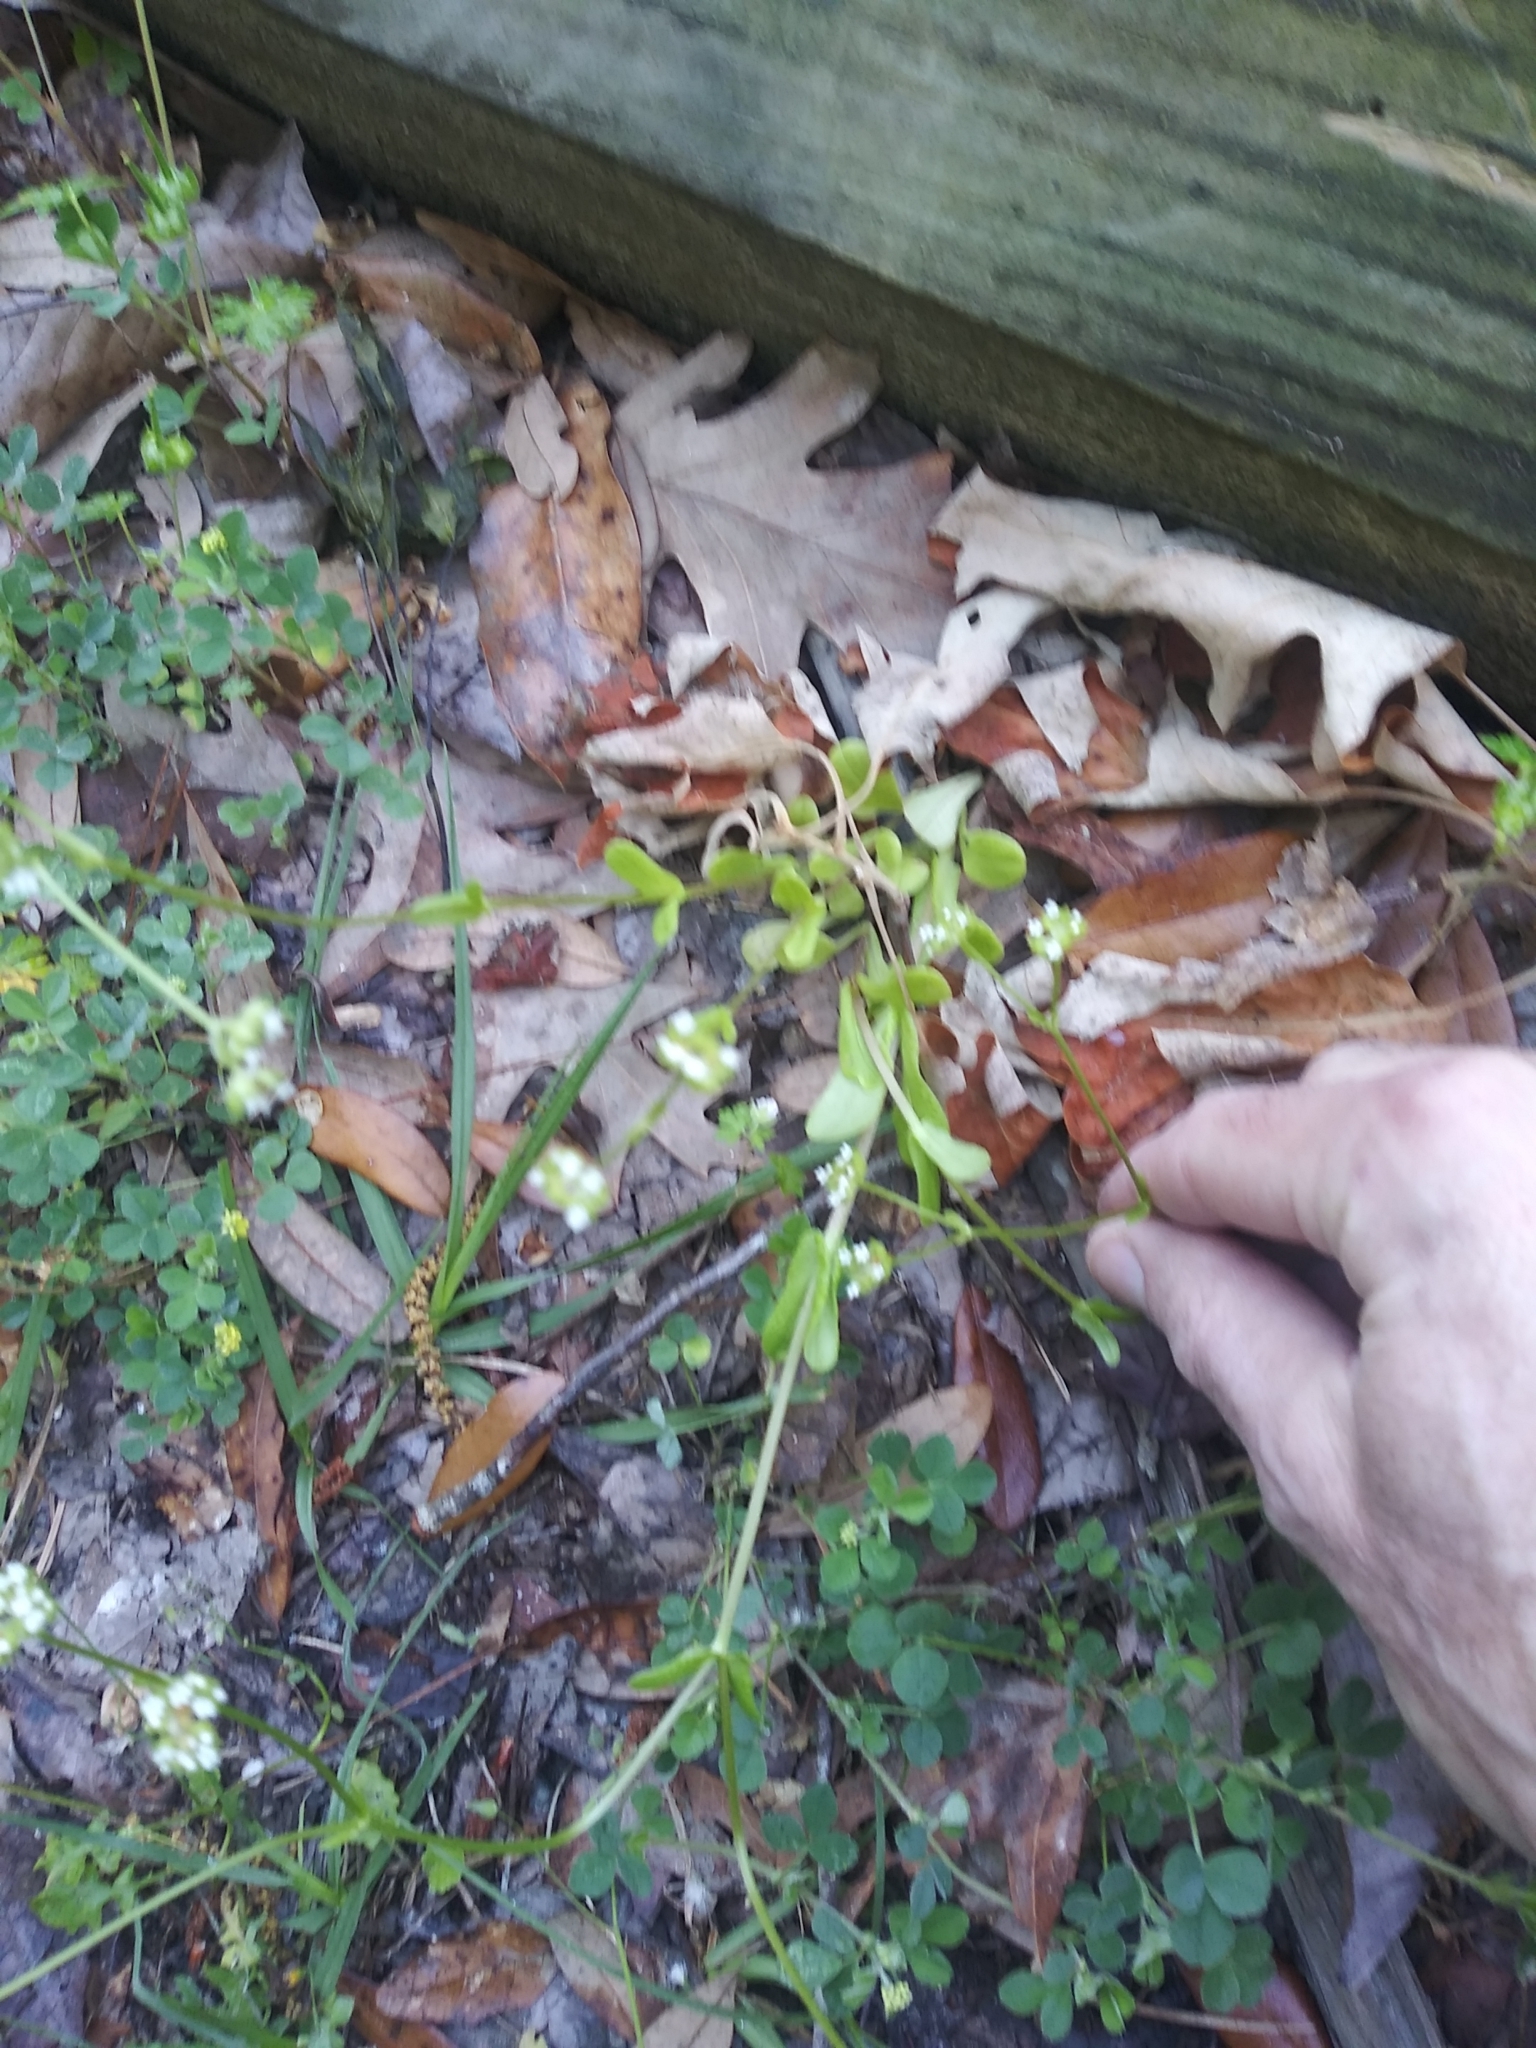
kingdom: Plantae
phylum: Tracheophyta
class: Magnoliopsida
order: Dipsacales
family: Caprifoliaceae
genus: Valerianella
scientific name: Valerianella radiata
